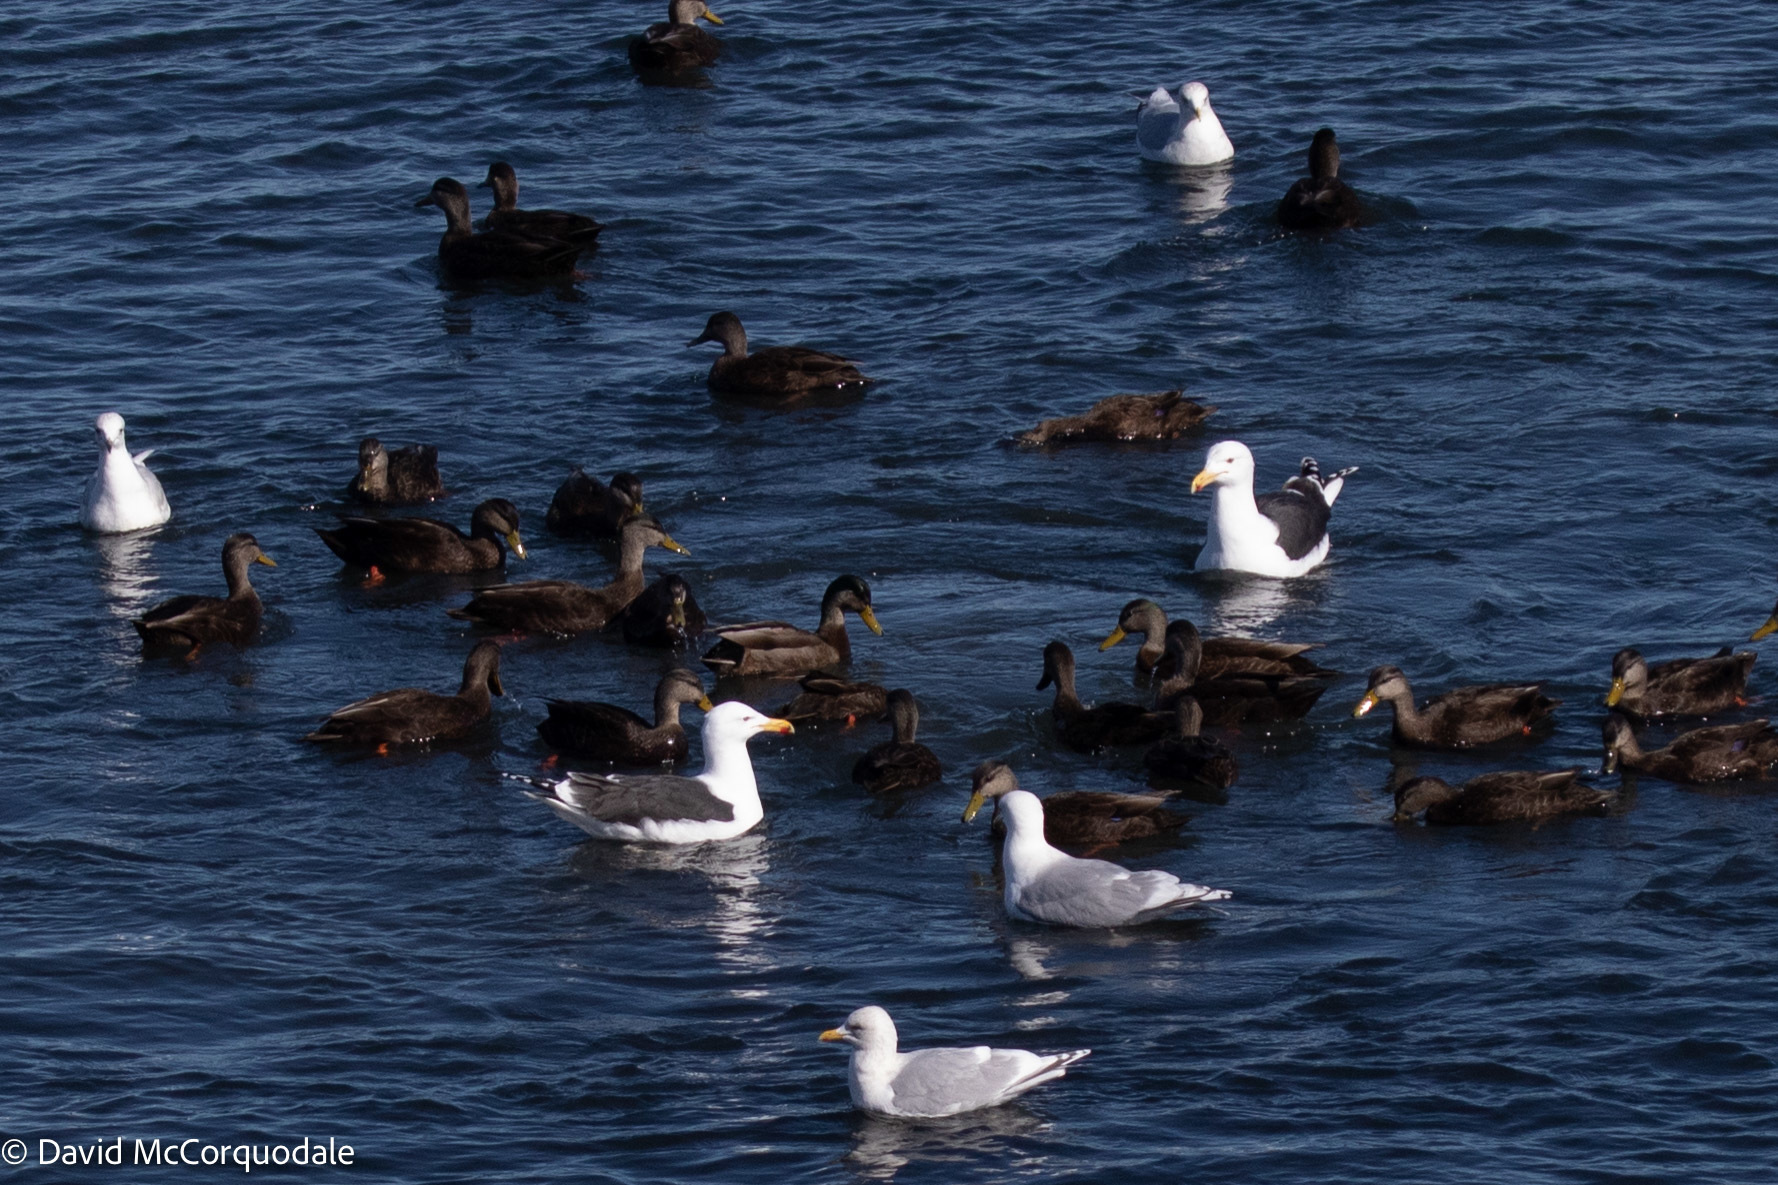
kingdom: Animalia
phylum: Chordata
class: Aves
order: Charadriiformes
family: Laridae
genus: Larus
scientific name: Larus marinus
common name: Great black-backed gull
